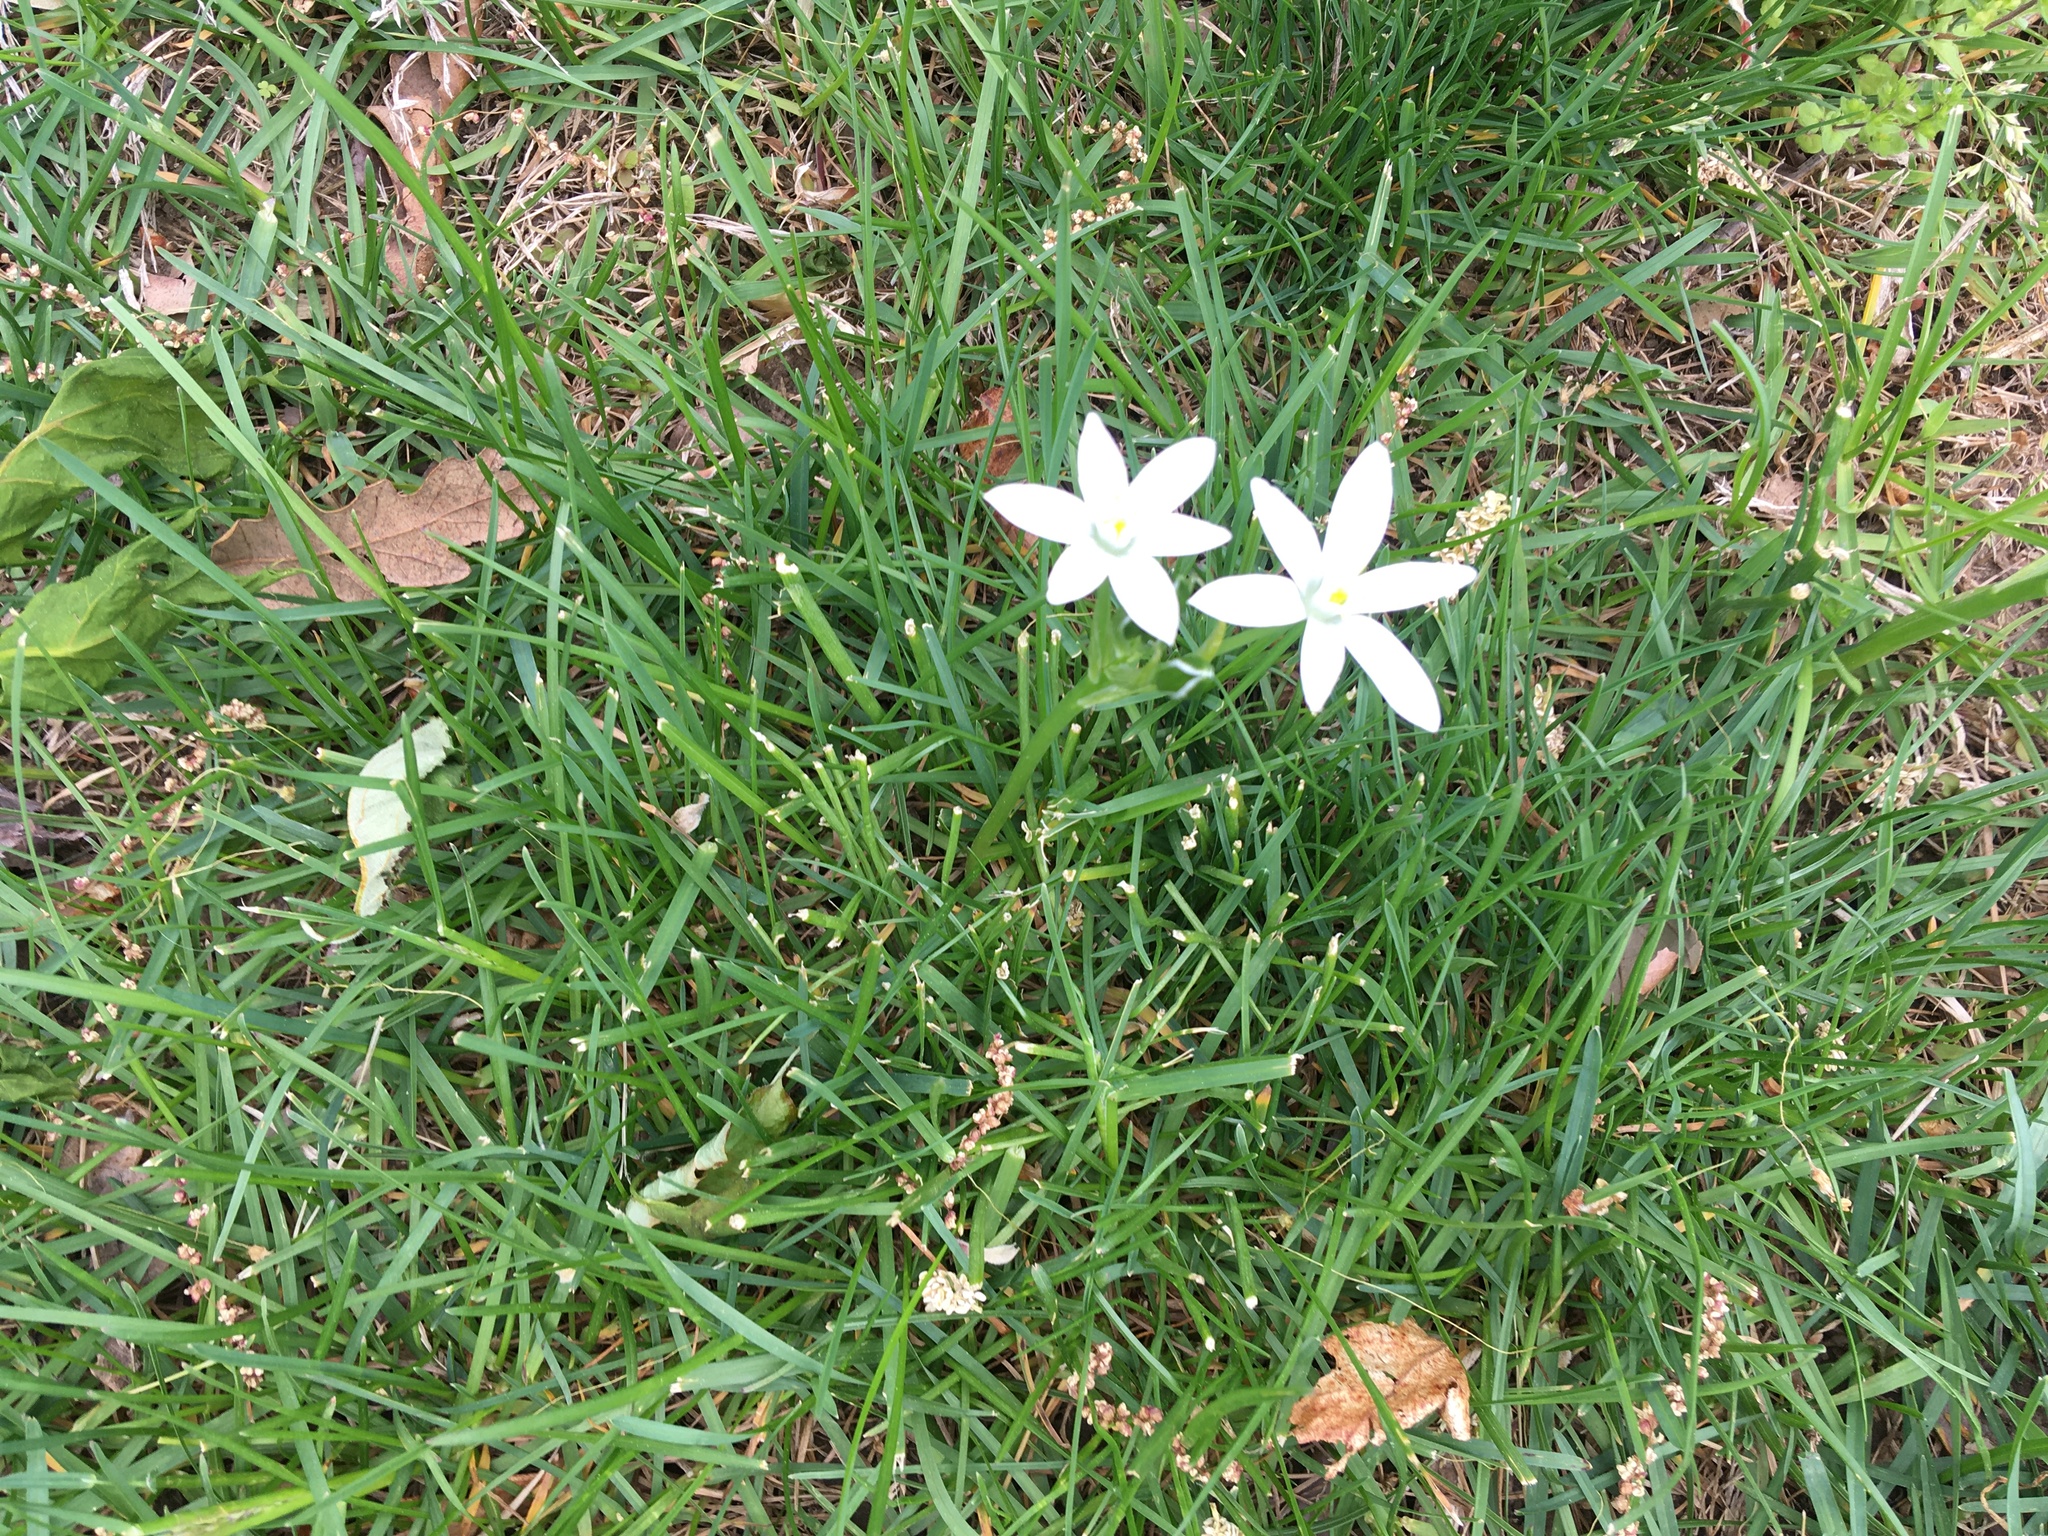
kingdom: Plantae
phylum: Tracheophyta
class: Liliopsida
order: Asparagales
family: Asparagaceae
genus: Ornithogalum
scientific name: Ornithogalum umbellatum
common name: Garden star-of-bethlehem
